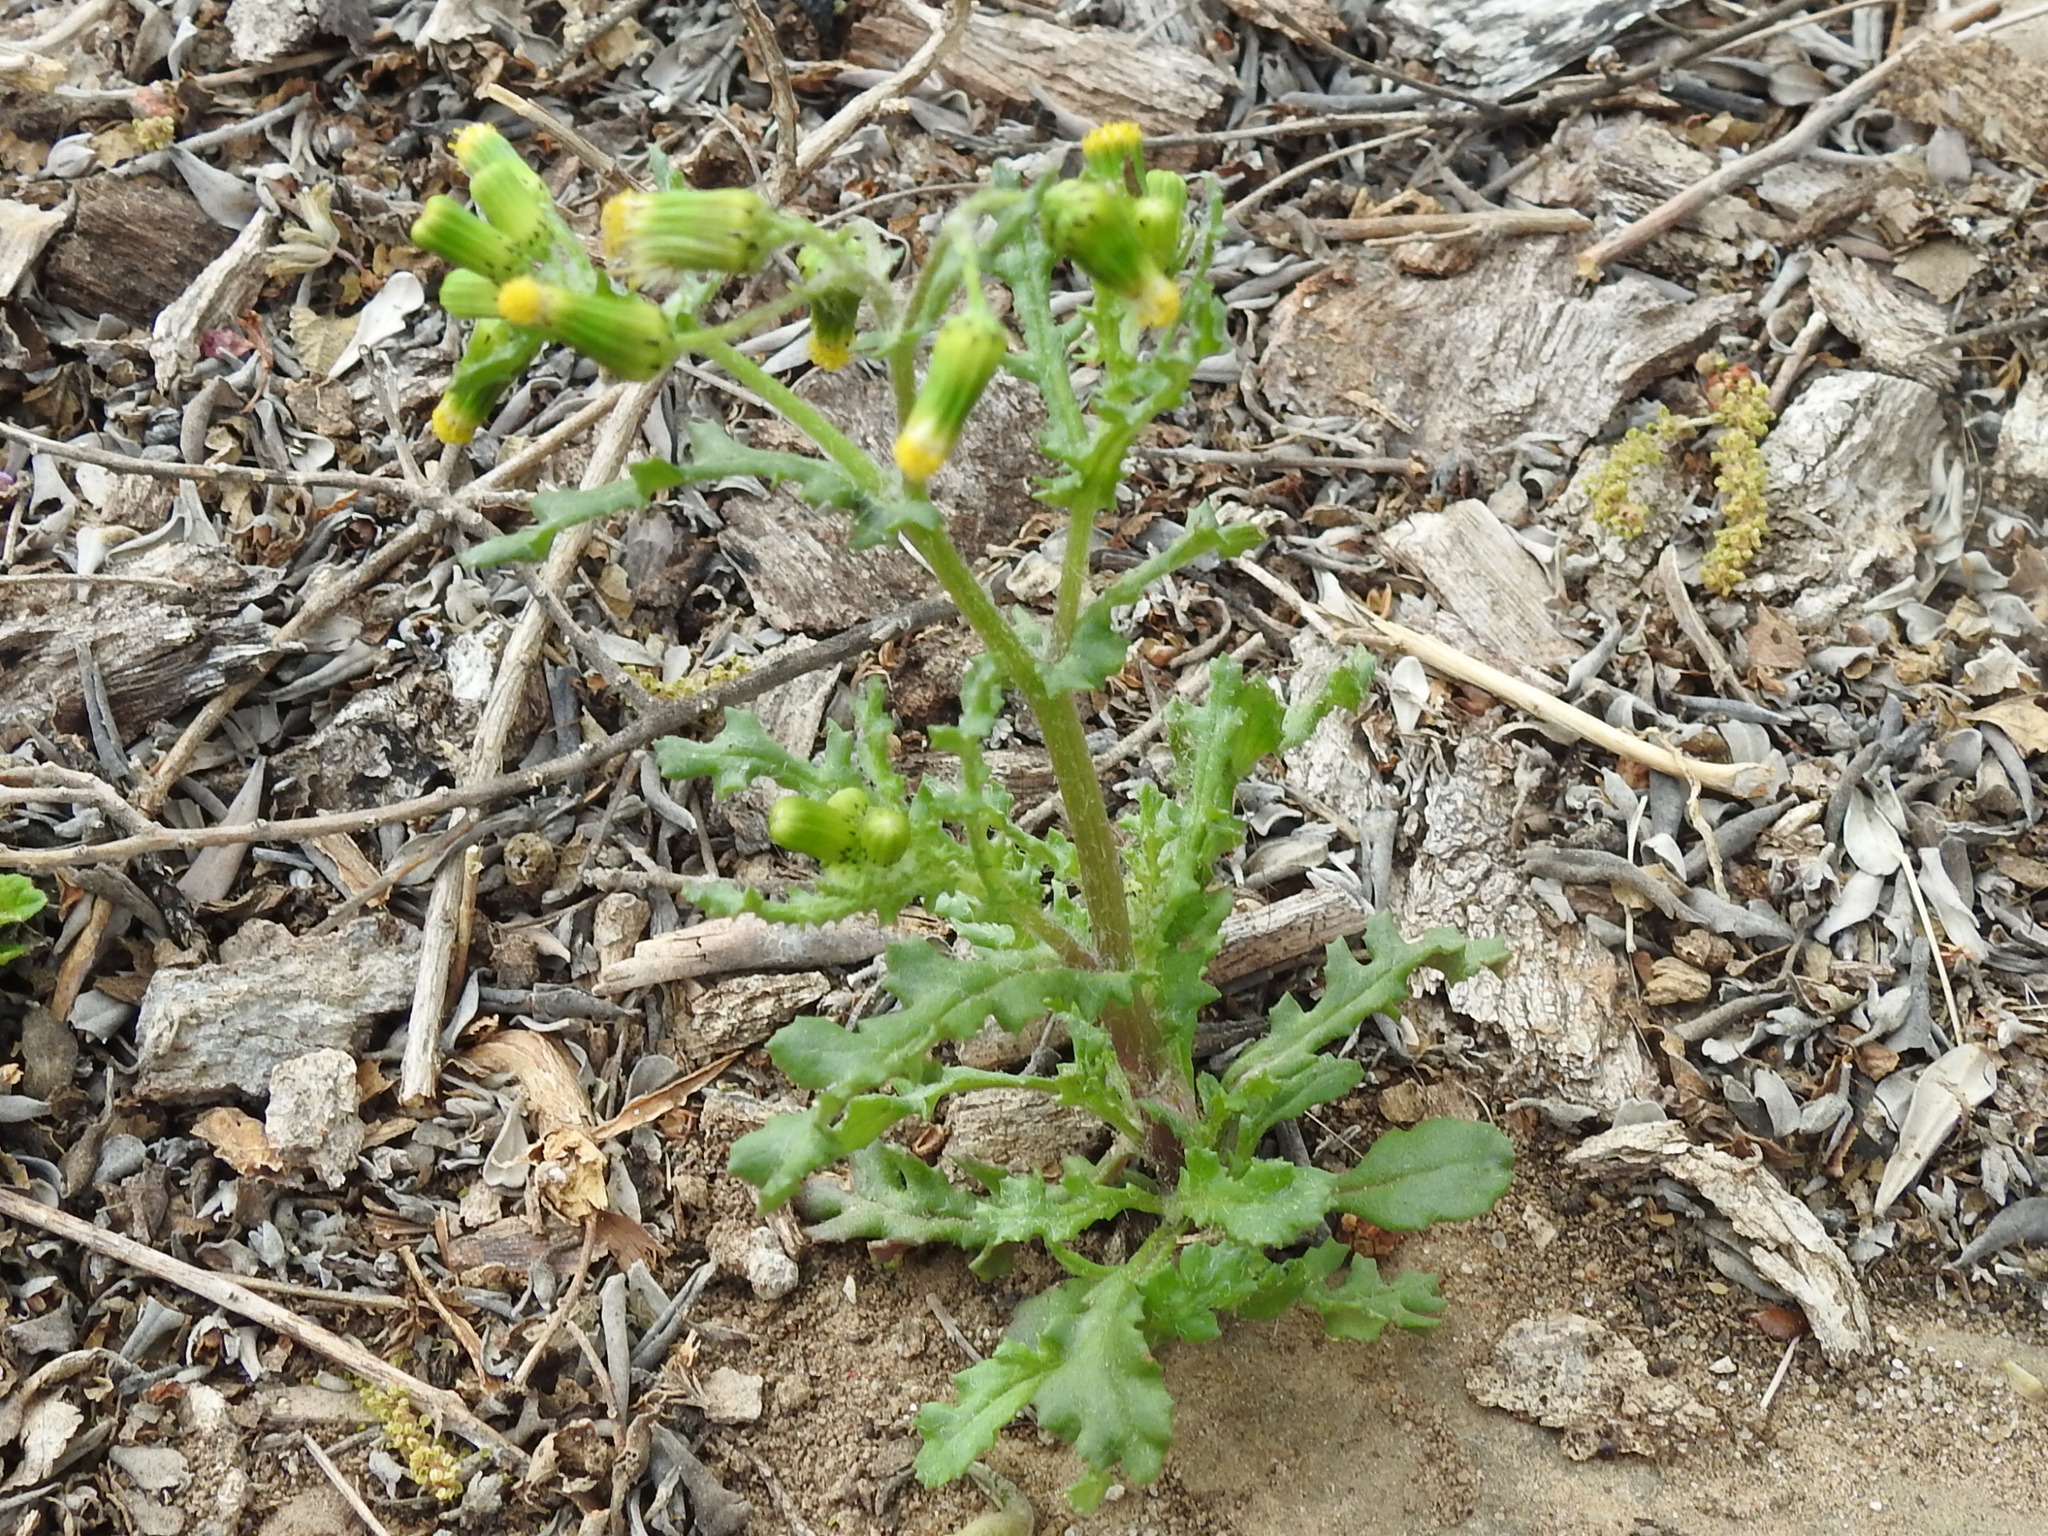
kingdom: Plantae
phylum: Tracheophyta
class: Magnoliopsida
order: Asterales
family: Asteraceae
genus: Senecio
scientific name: Senecio vulgaris
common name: Old-man-in-the-spring
